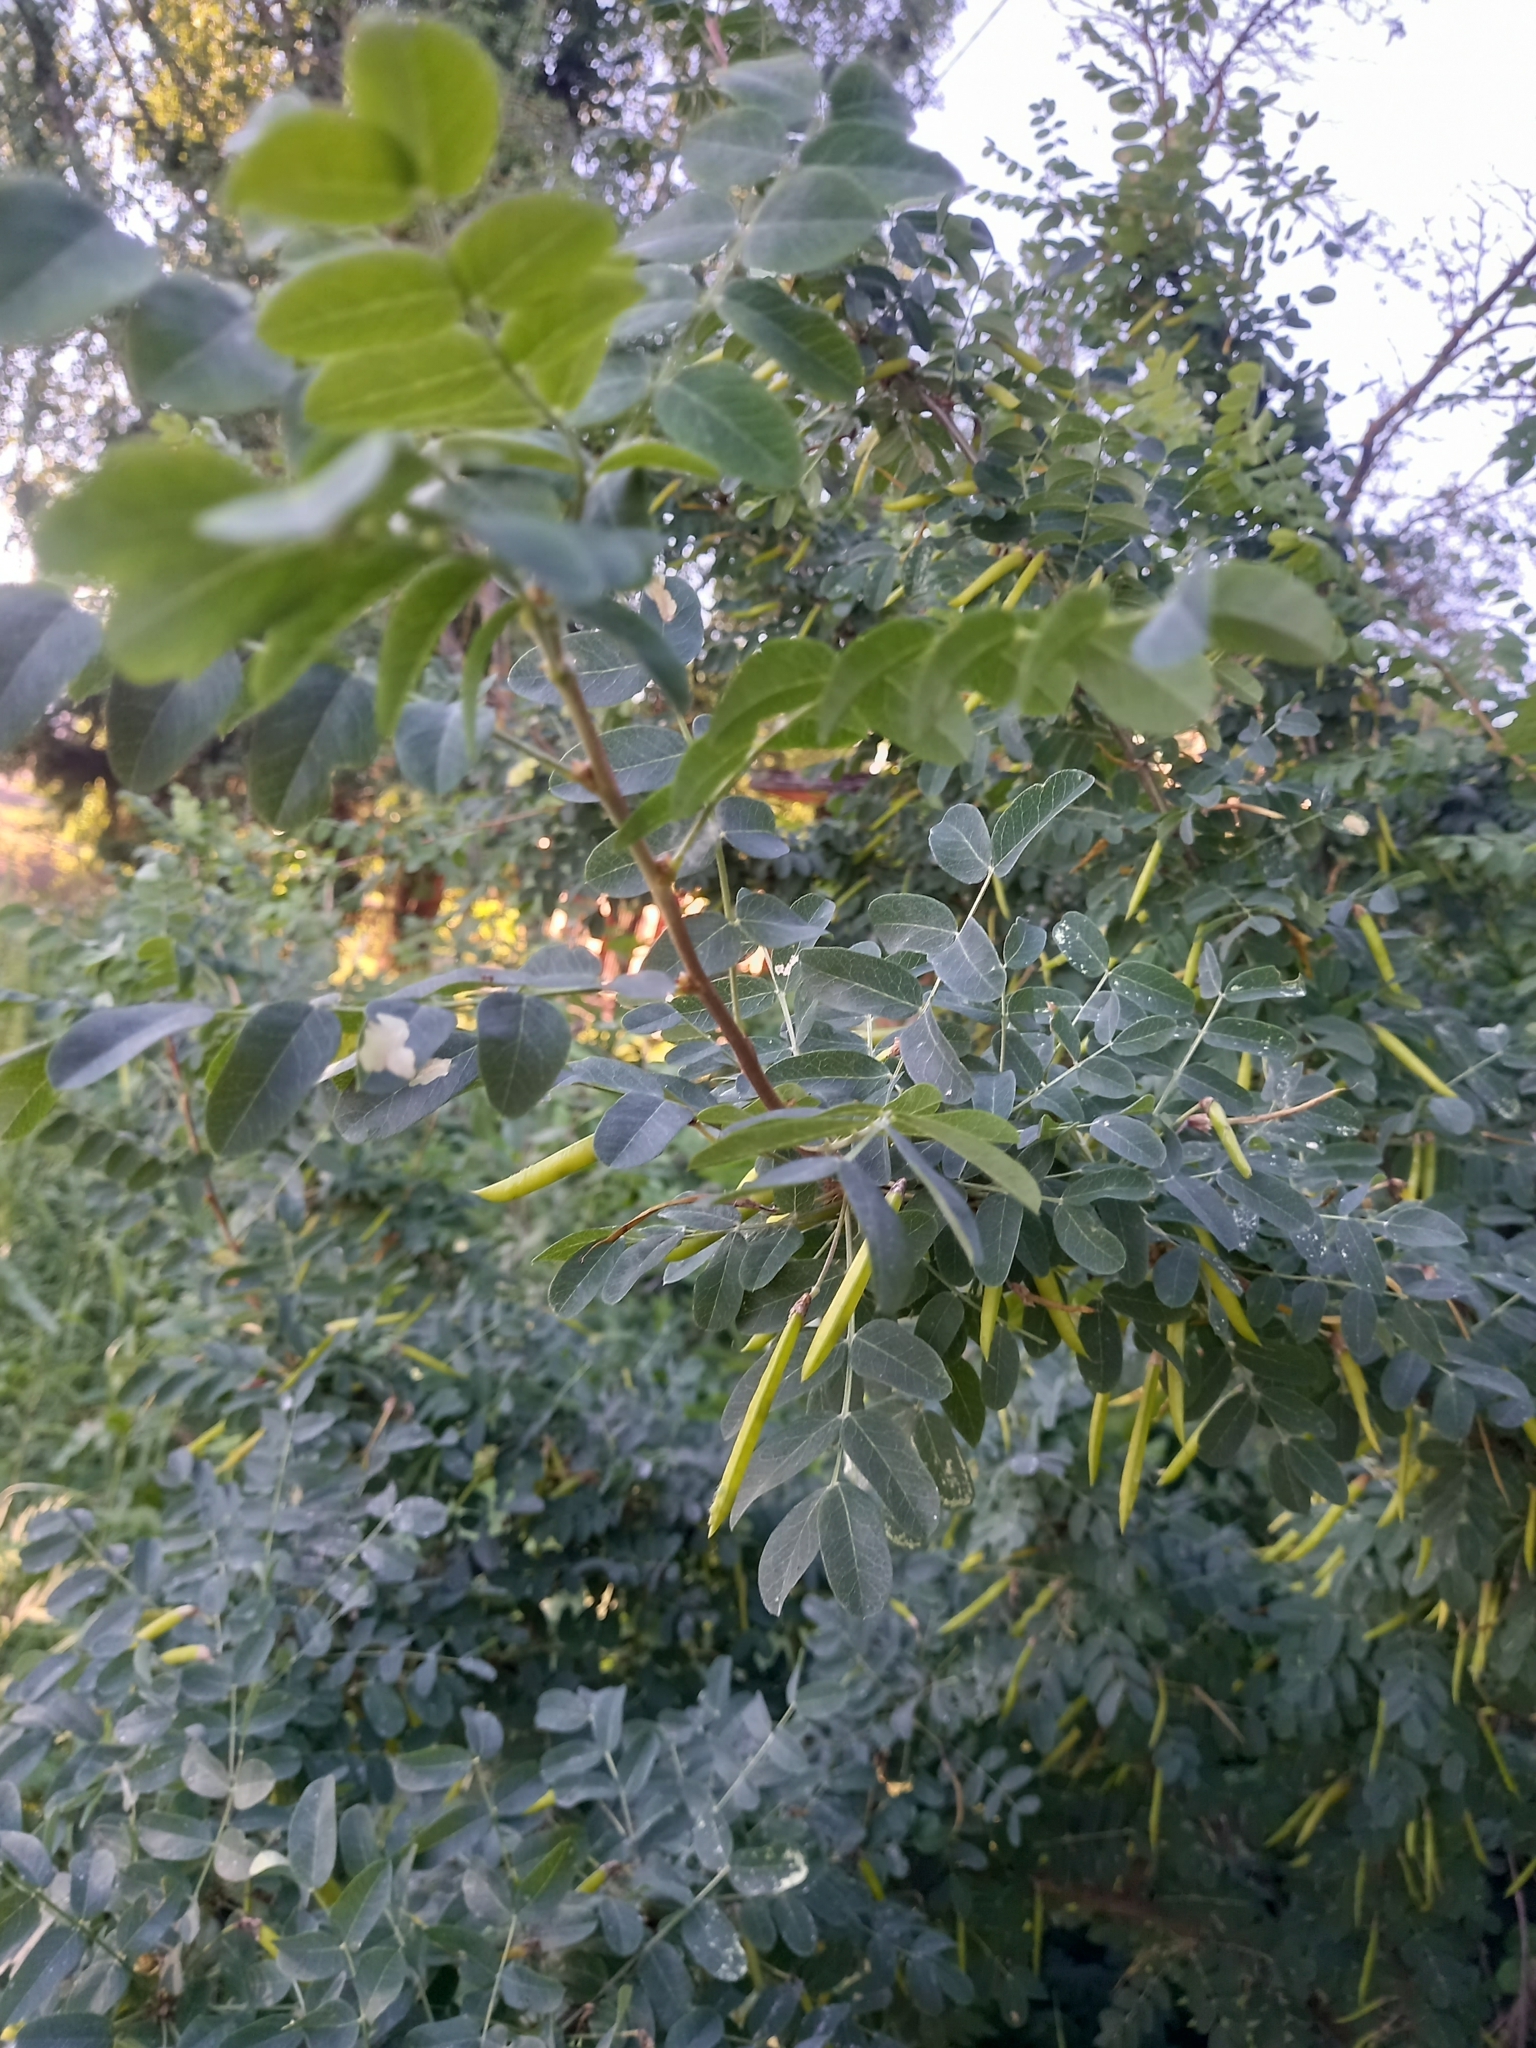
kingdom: Plantae
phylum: Tracheophyta
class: Magnoliopsida
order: Fabales
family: Fabaceae
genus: Caragana
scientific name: Caragana arborescens
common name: Siberian peashrub
